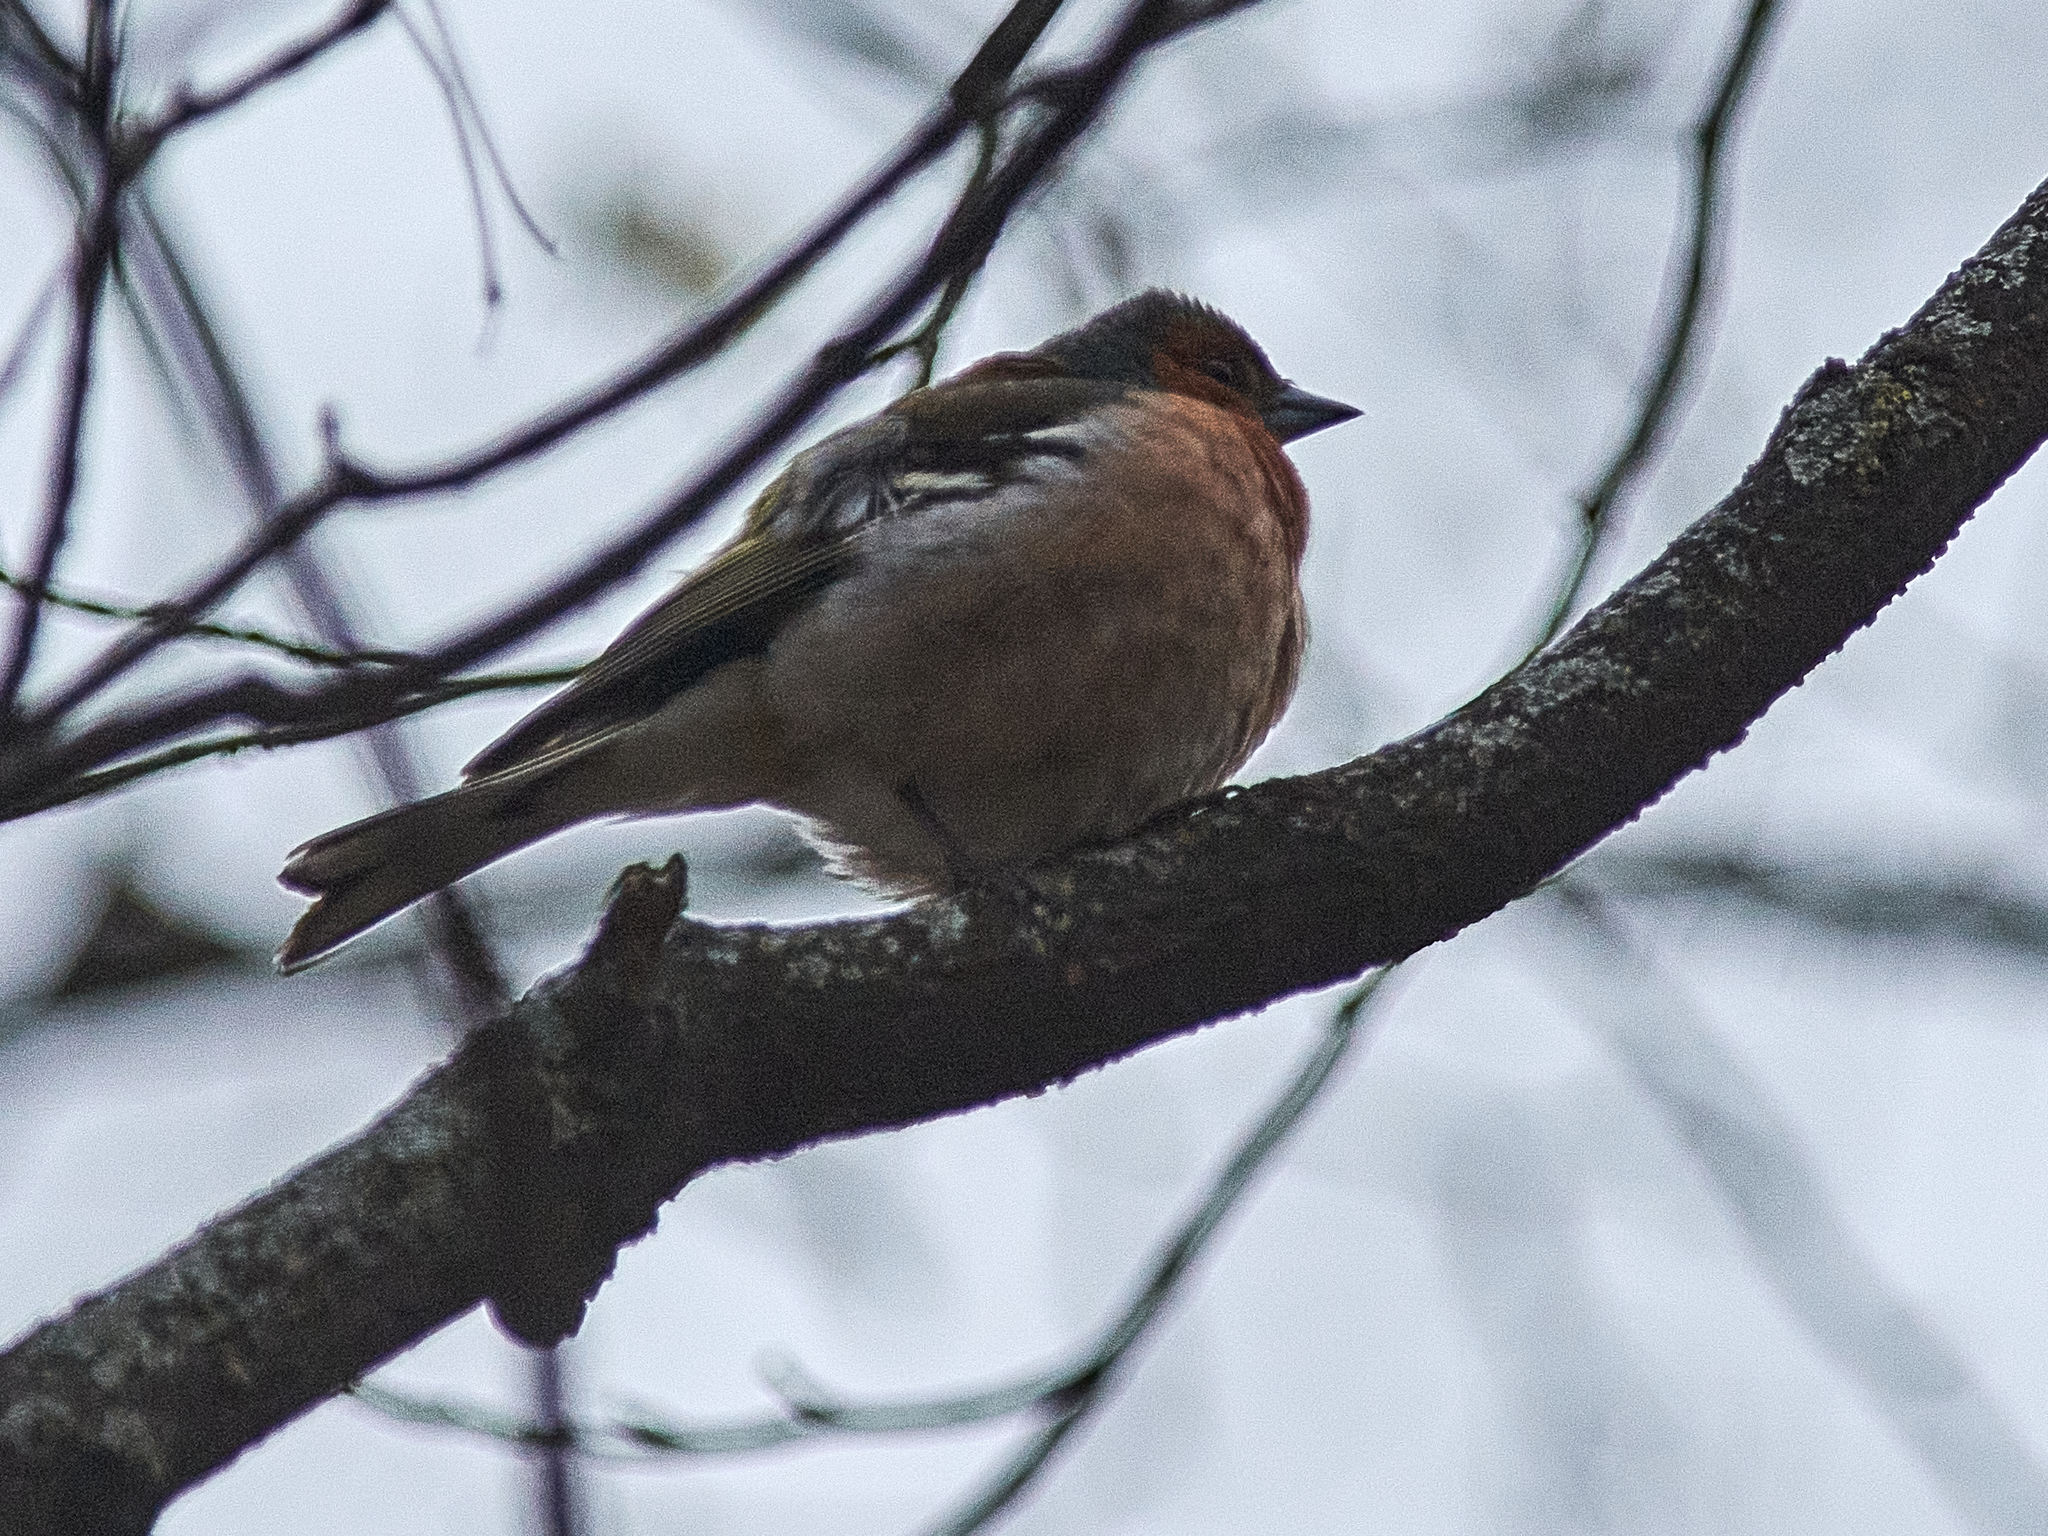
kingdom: Animalia
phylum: Chordata
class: Aves
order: Passeriformes
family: Fringillidae
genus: Fringilla
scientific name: Fringilla coelebs
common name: Common chaffinch
